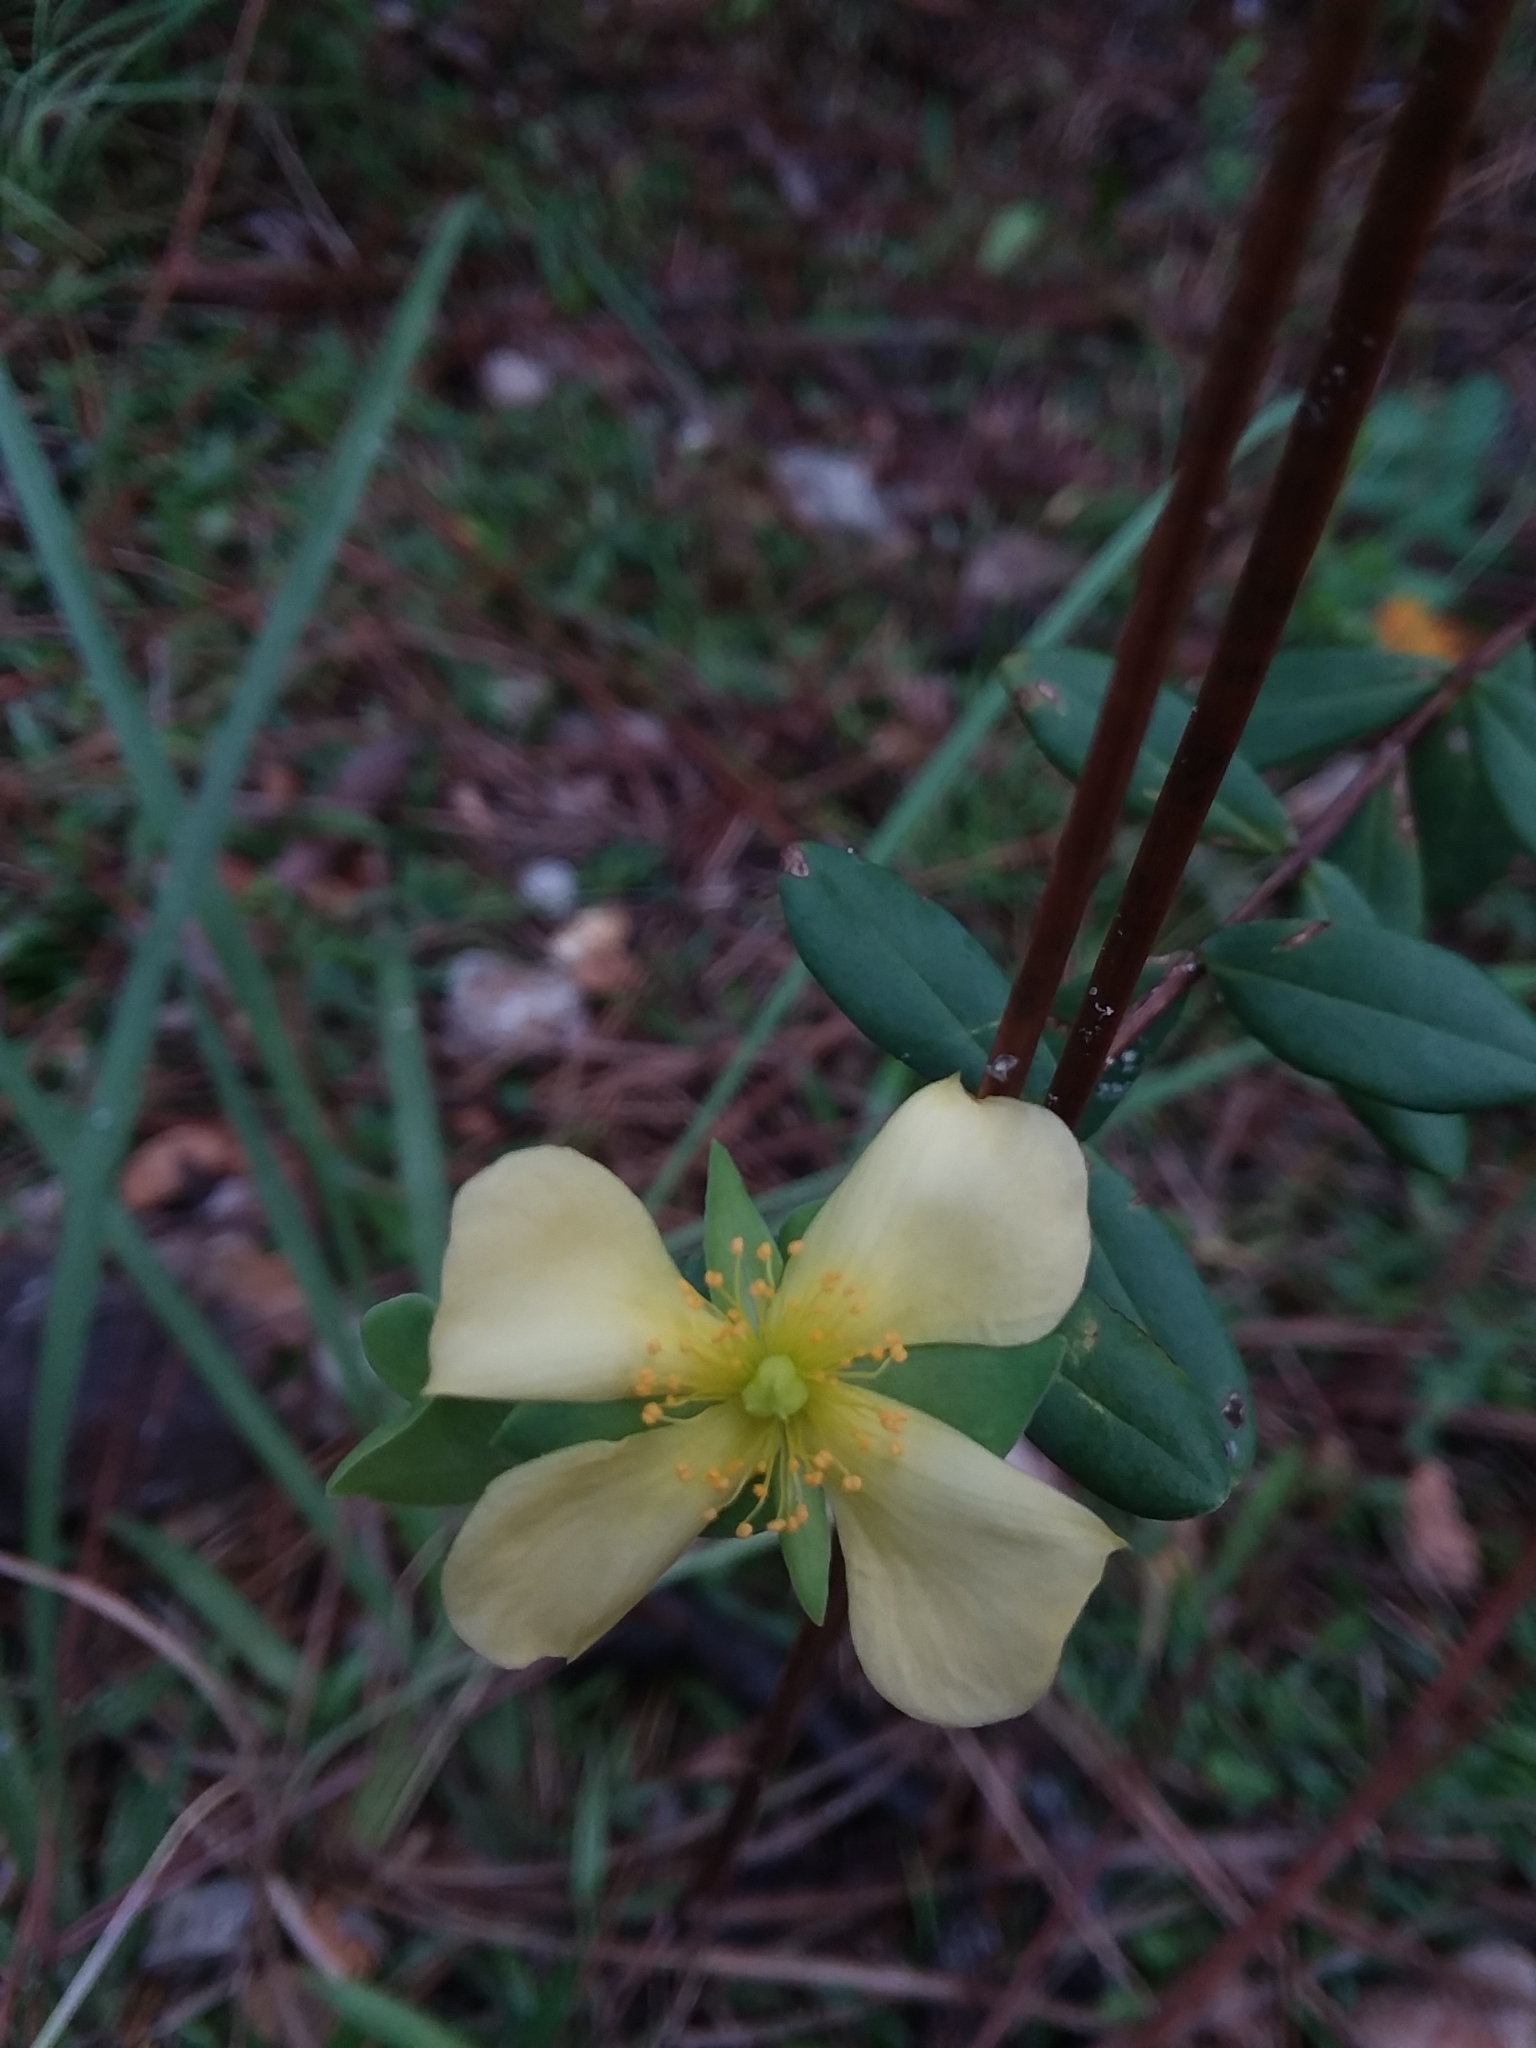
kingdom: Plantae
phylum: Tracheophyta
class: Magnoliopsida
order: Malpighiales
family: Hypericaceae
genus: Hypericum
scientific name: Hypericum crux-andreae
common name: St.-peter's-wort
